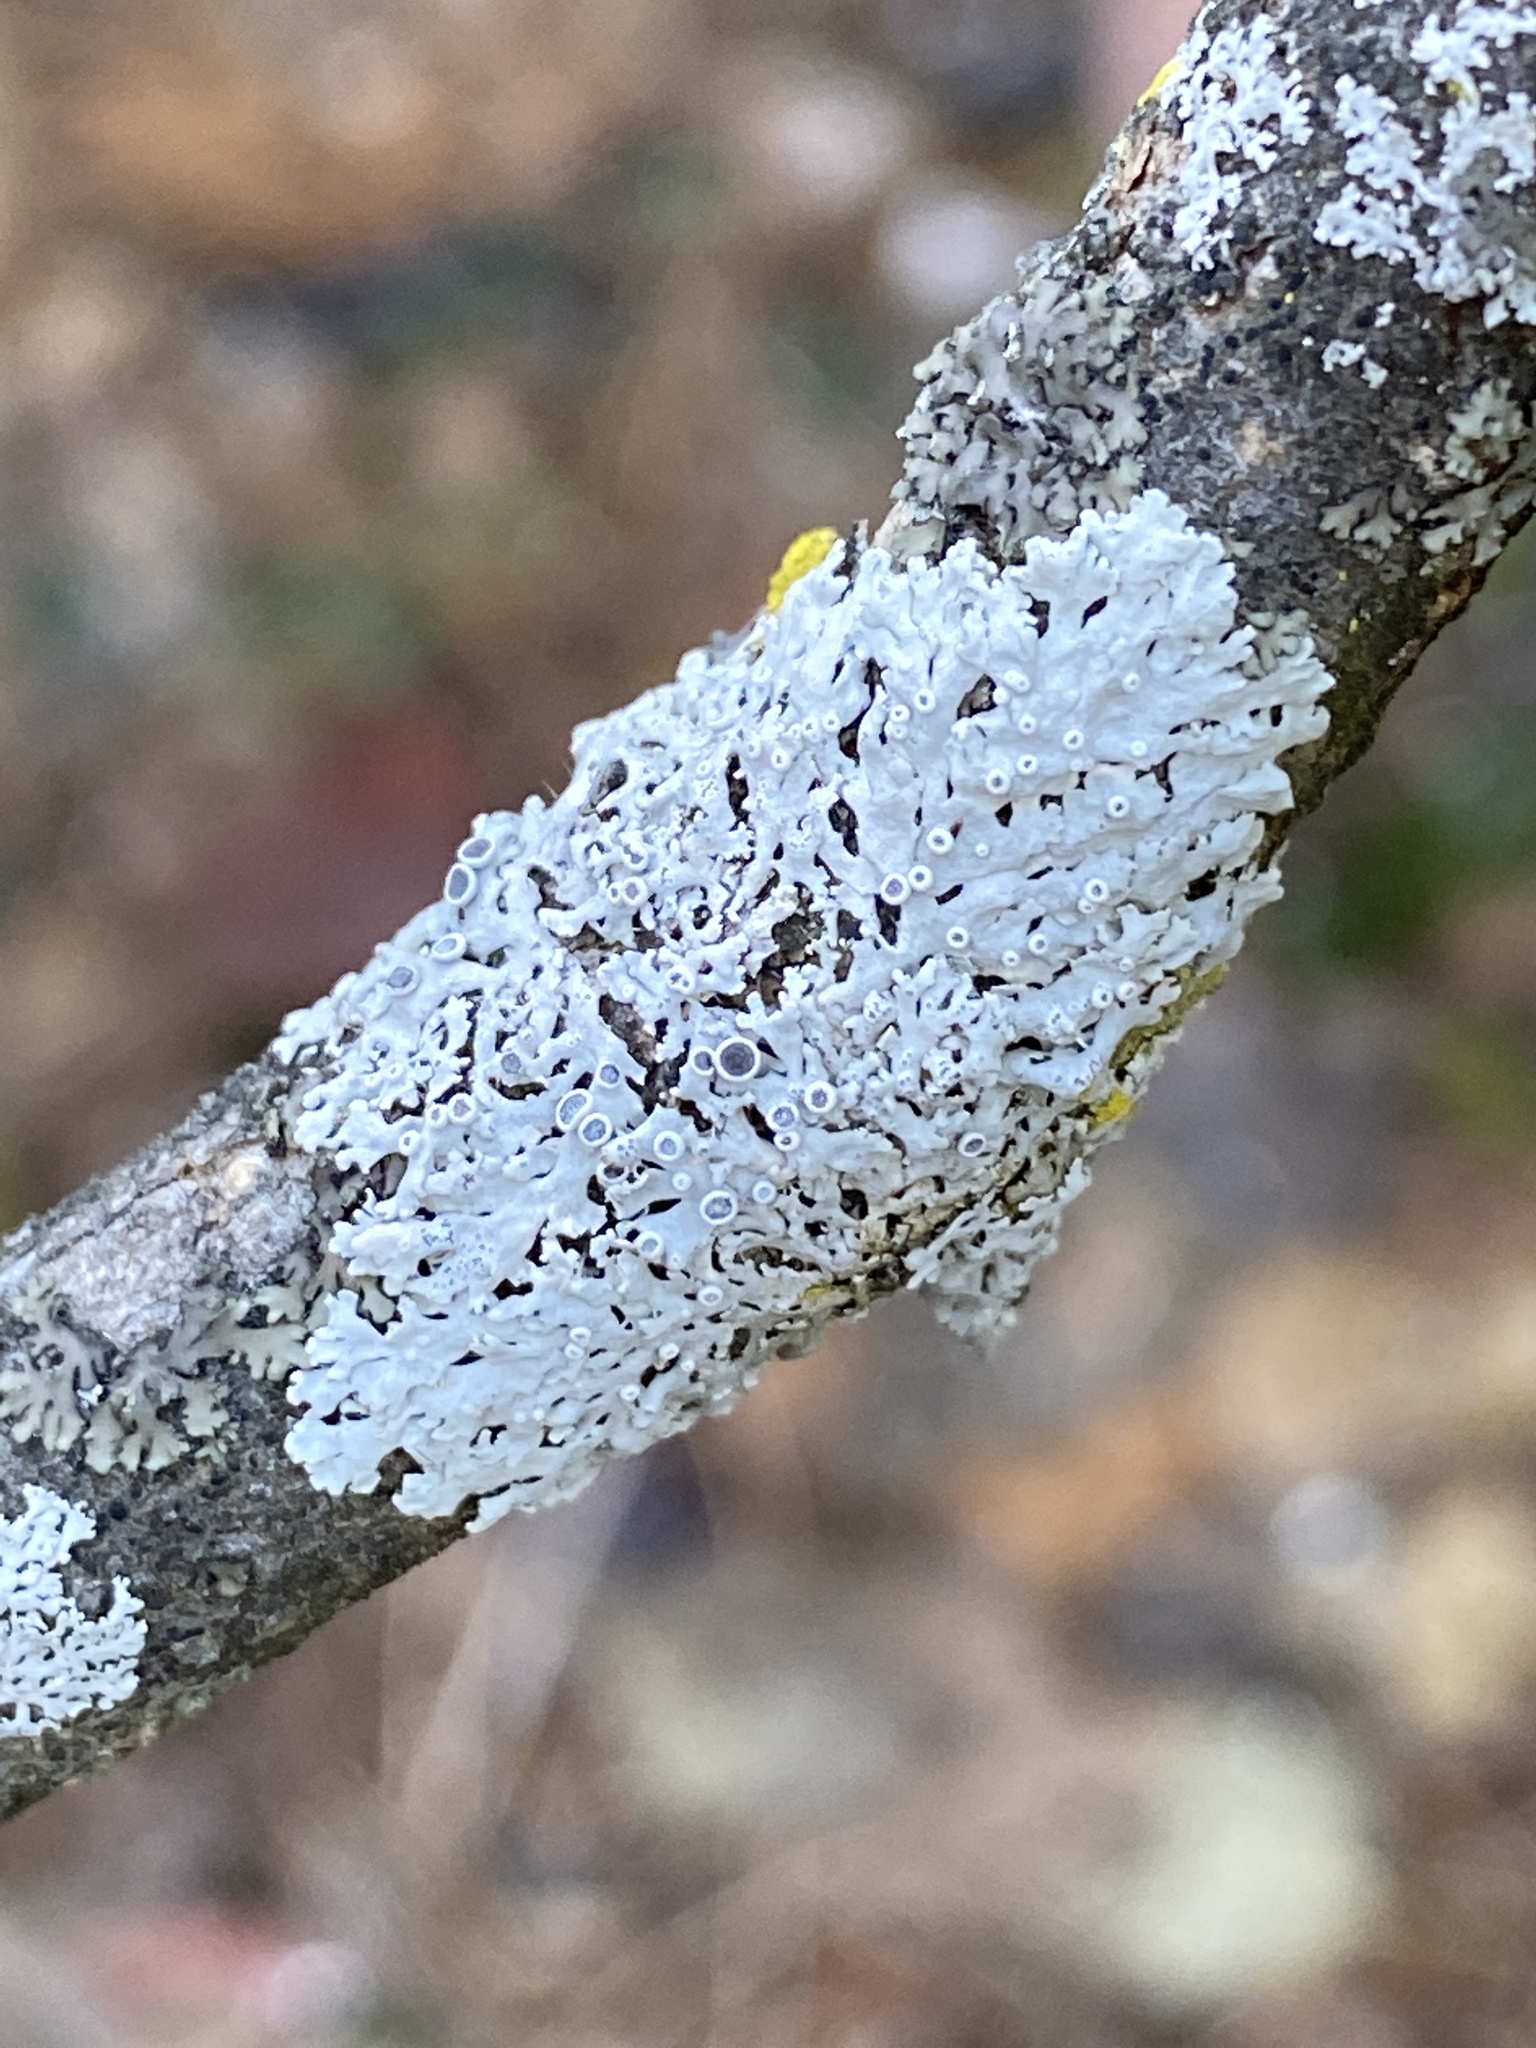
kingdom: Fungi
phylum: Ascomycota
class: Lecanoromycetes
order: Caliciales
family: Physciaceae
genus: Physcia
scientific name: Physcia stellaris
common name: Star rosette lichen
